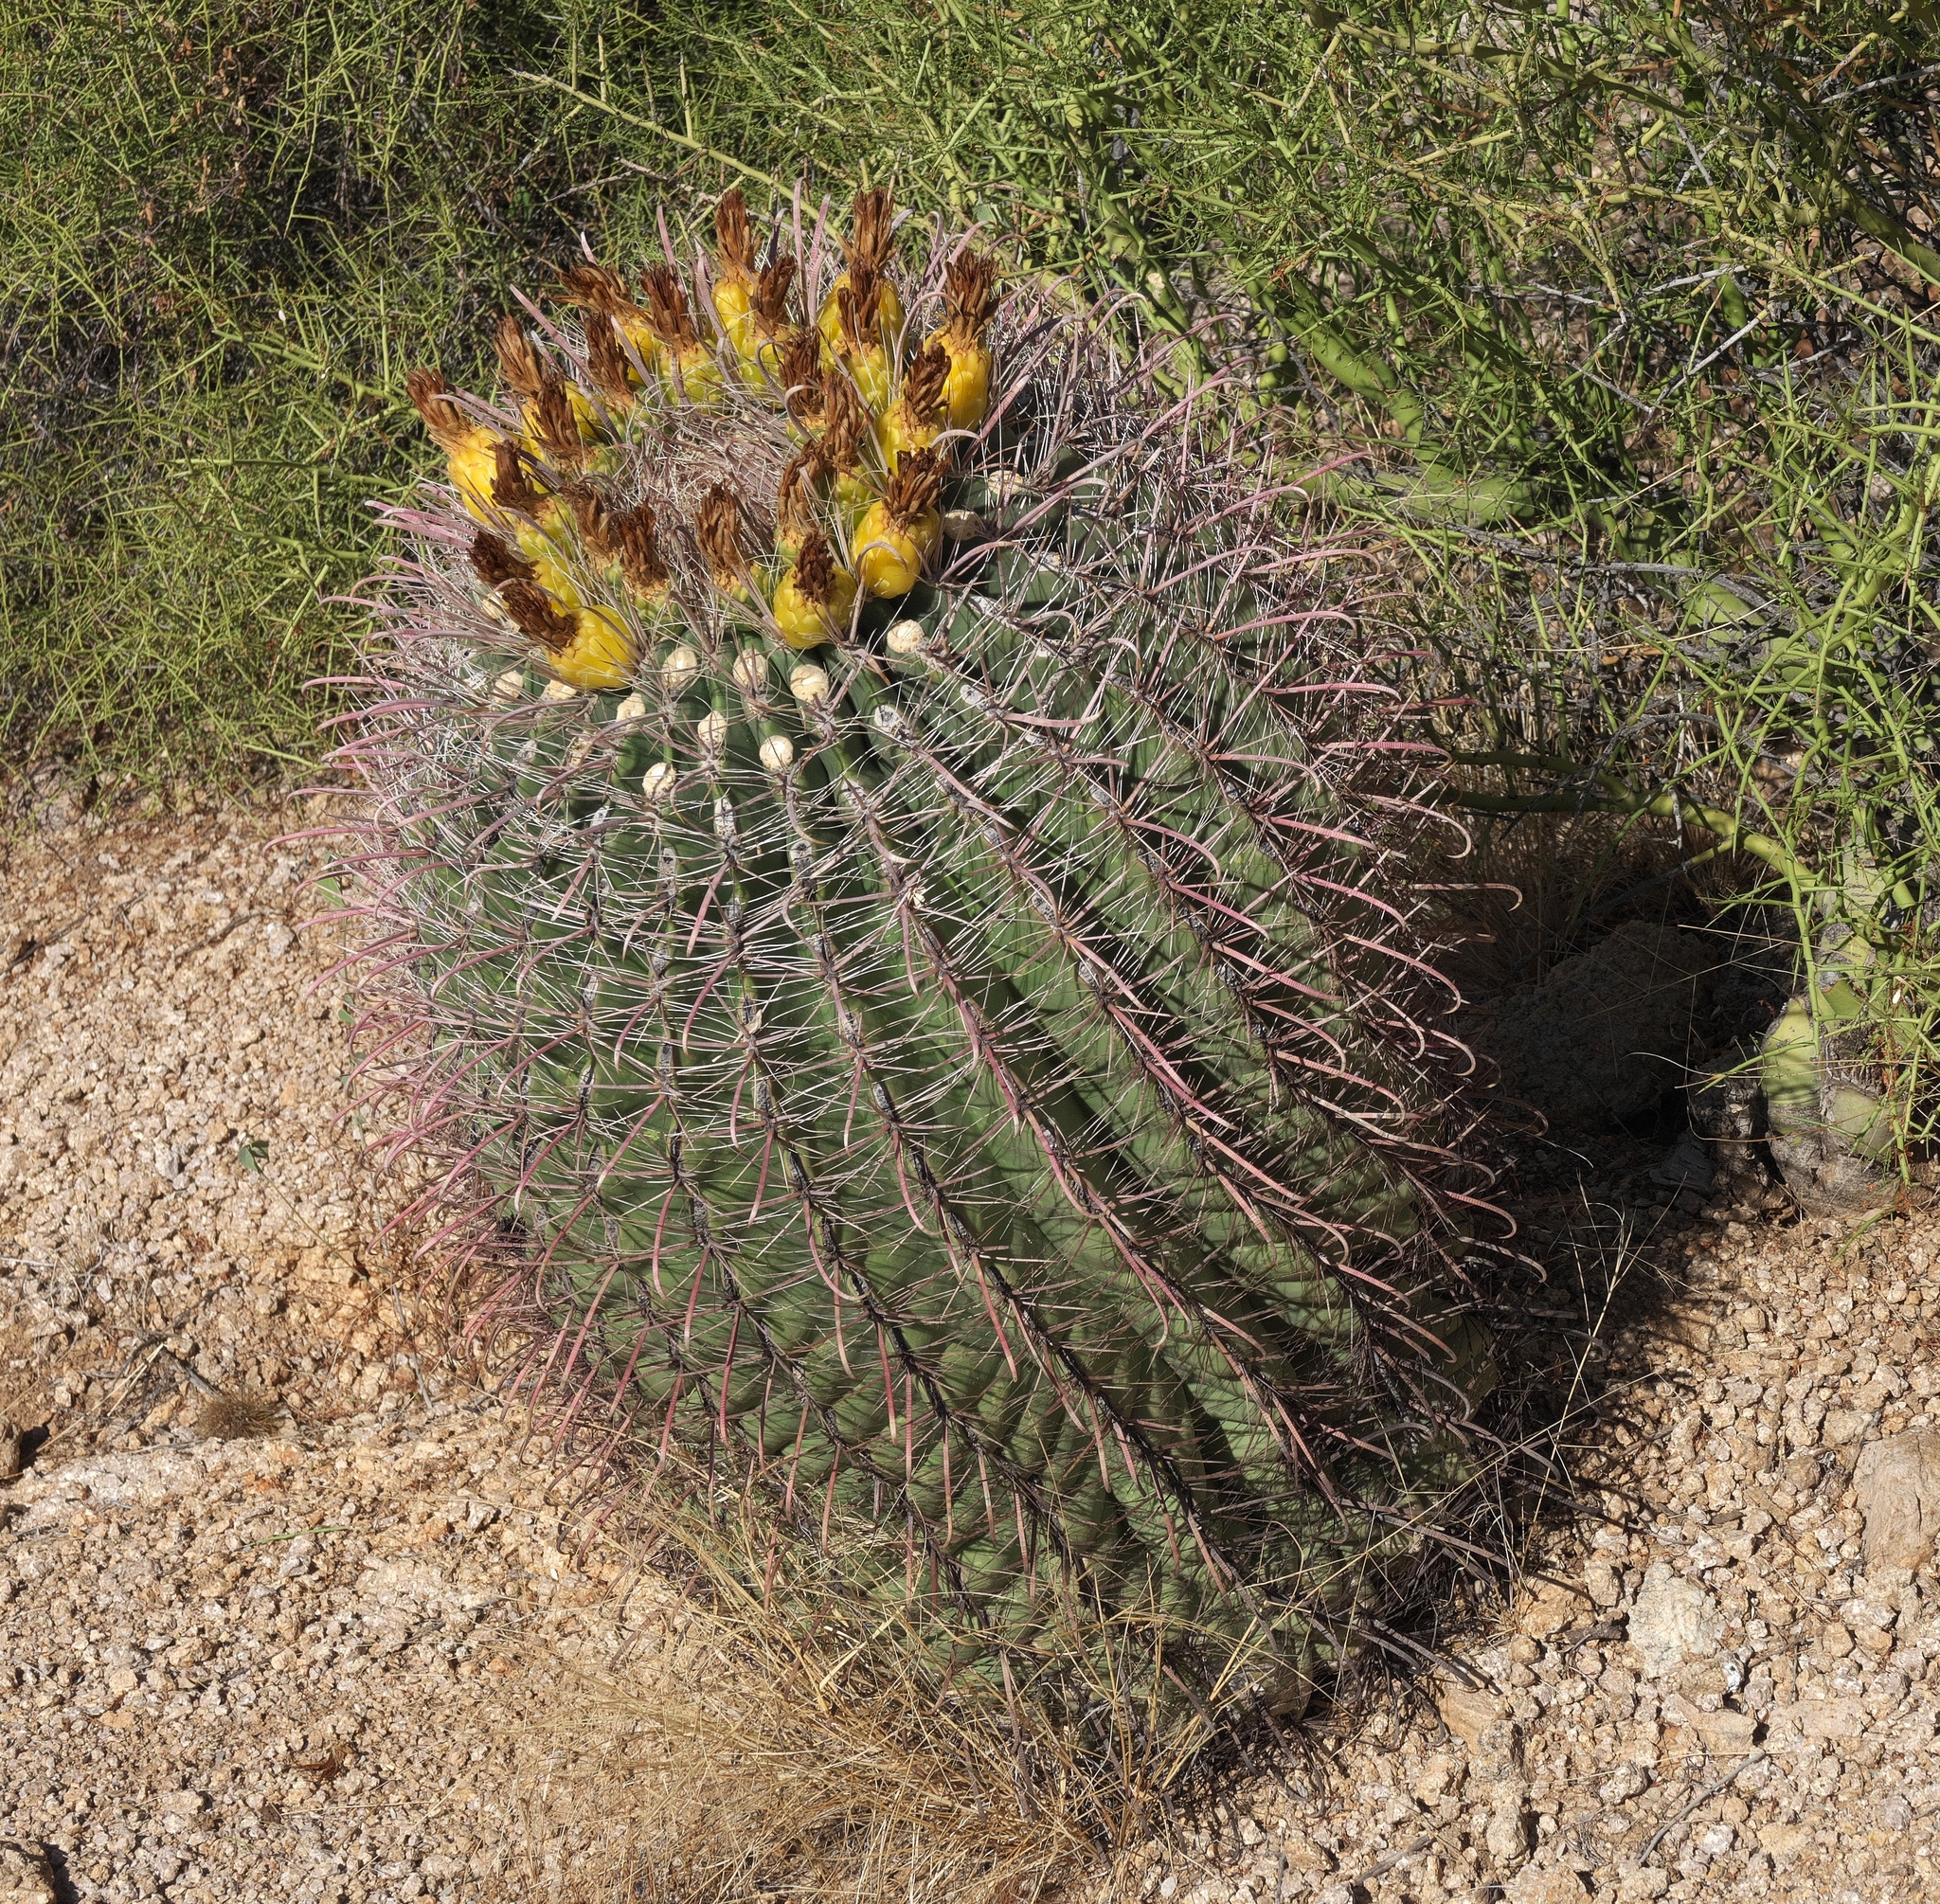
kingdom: Plantae
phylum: Tracheophyta
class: Magnoliopsida
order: Caryophyllales
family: Cactaceae
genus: Ferocactus
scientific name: Ferocactus wislizeni
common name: Candy barrel cactus
